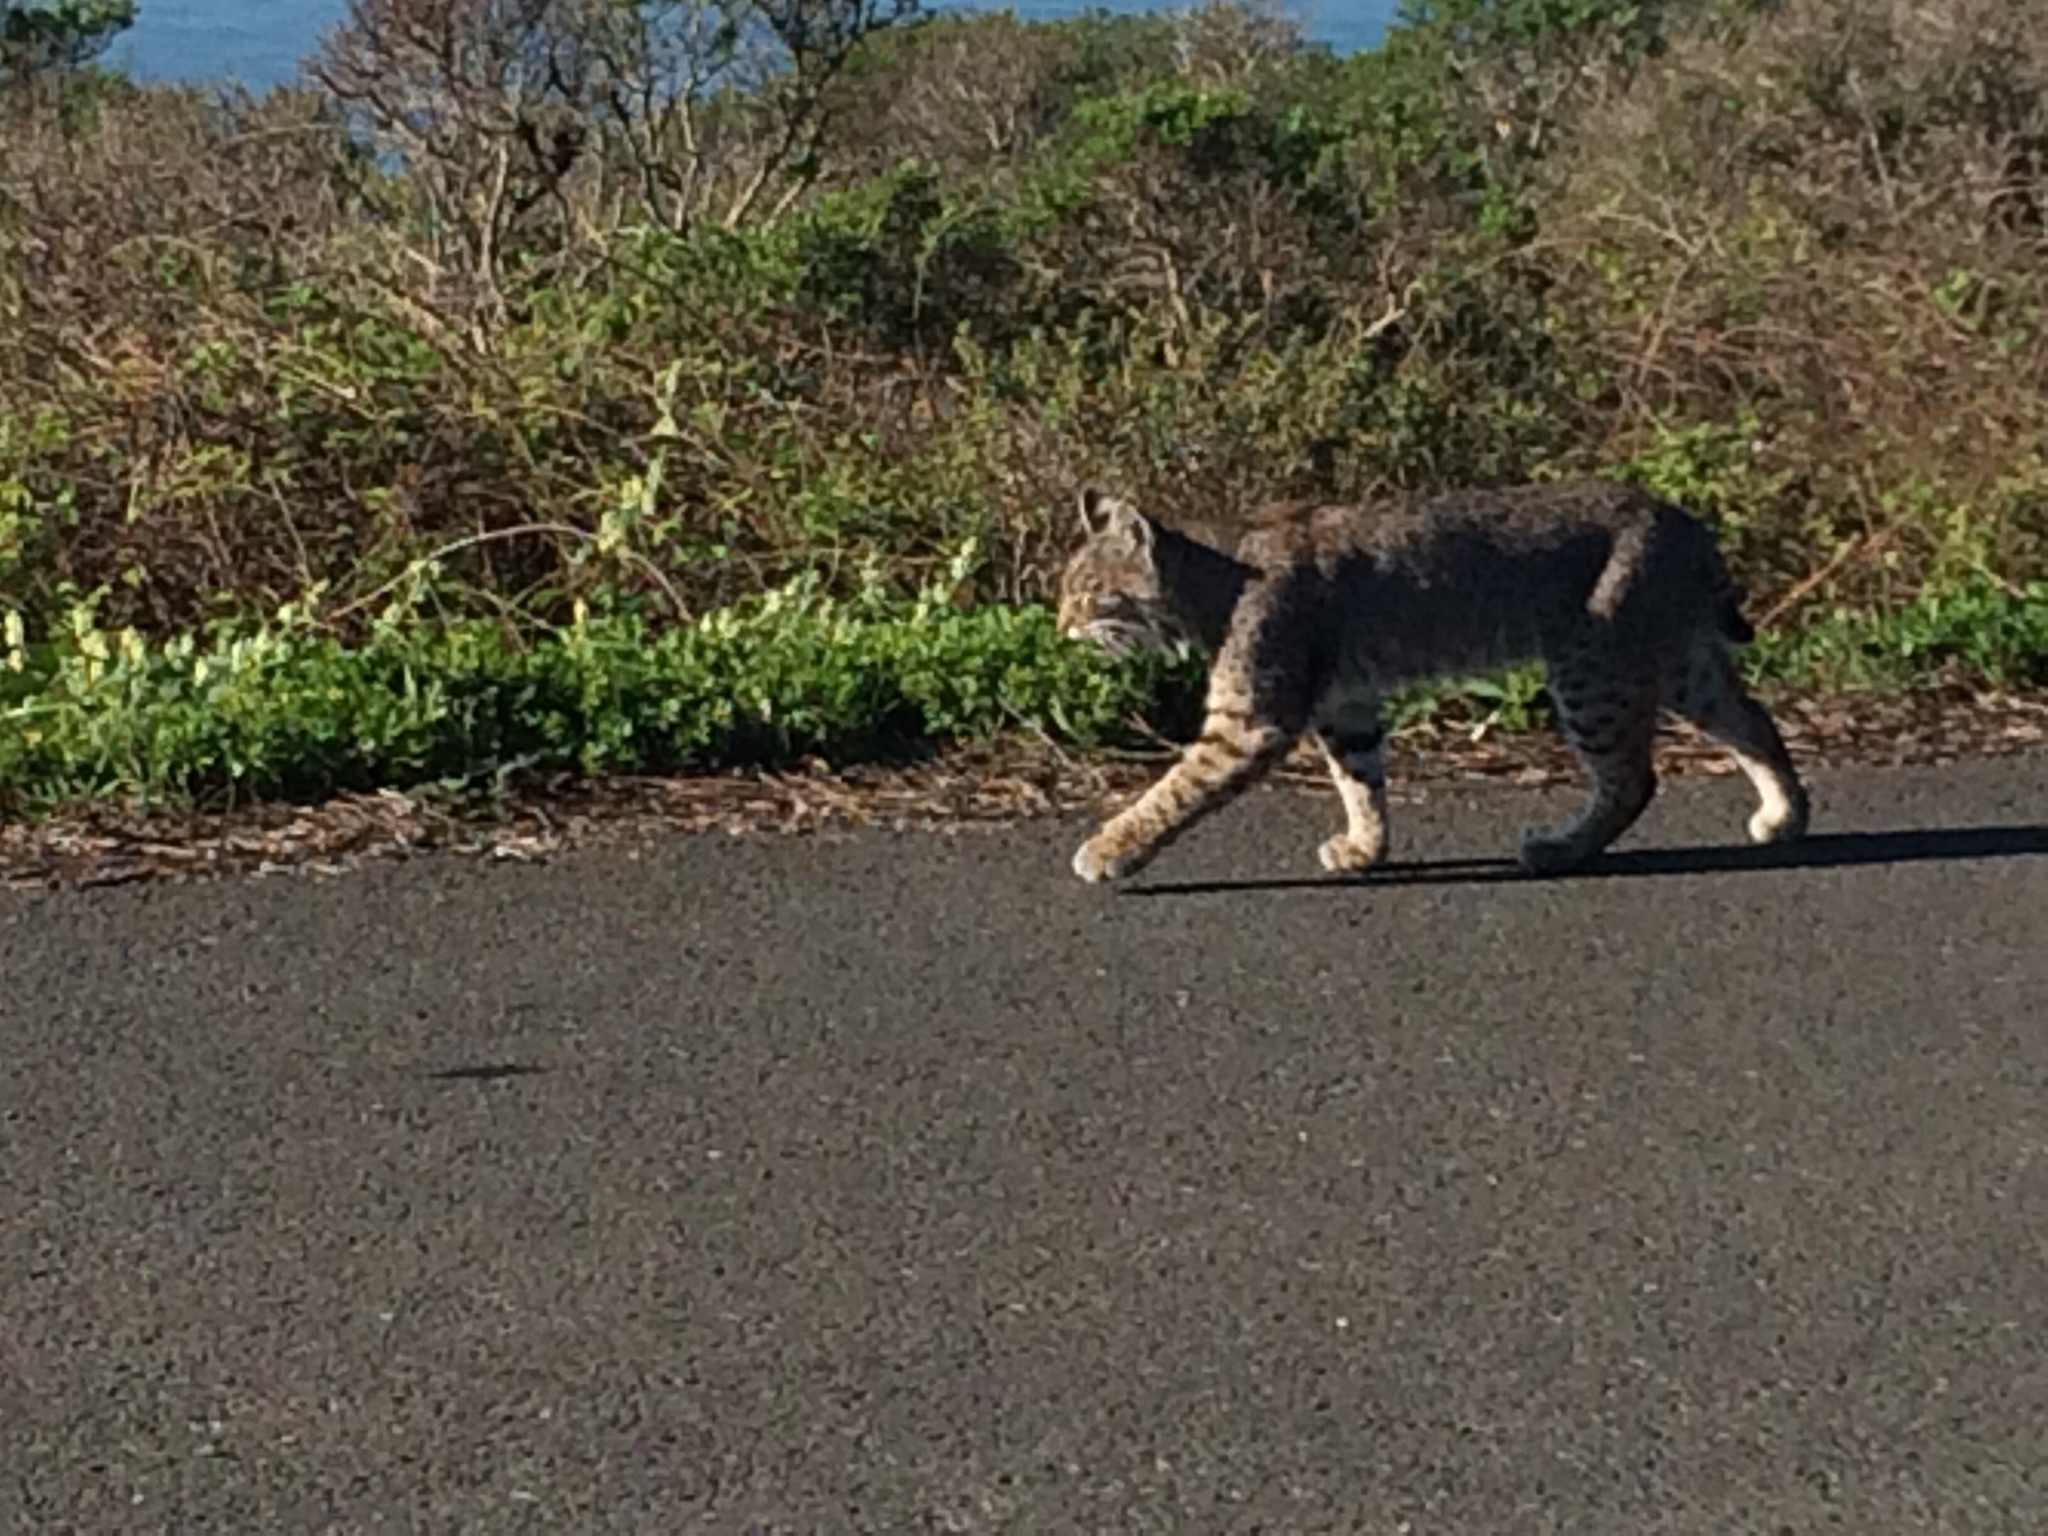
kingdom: Animalia
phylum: Chordata
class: Mammalia
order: Carnivora
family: Felidae
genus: Lynx
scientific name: Lynx rufus
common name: Bobcat
